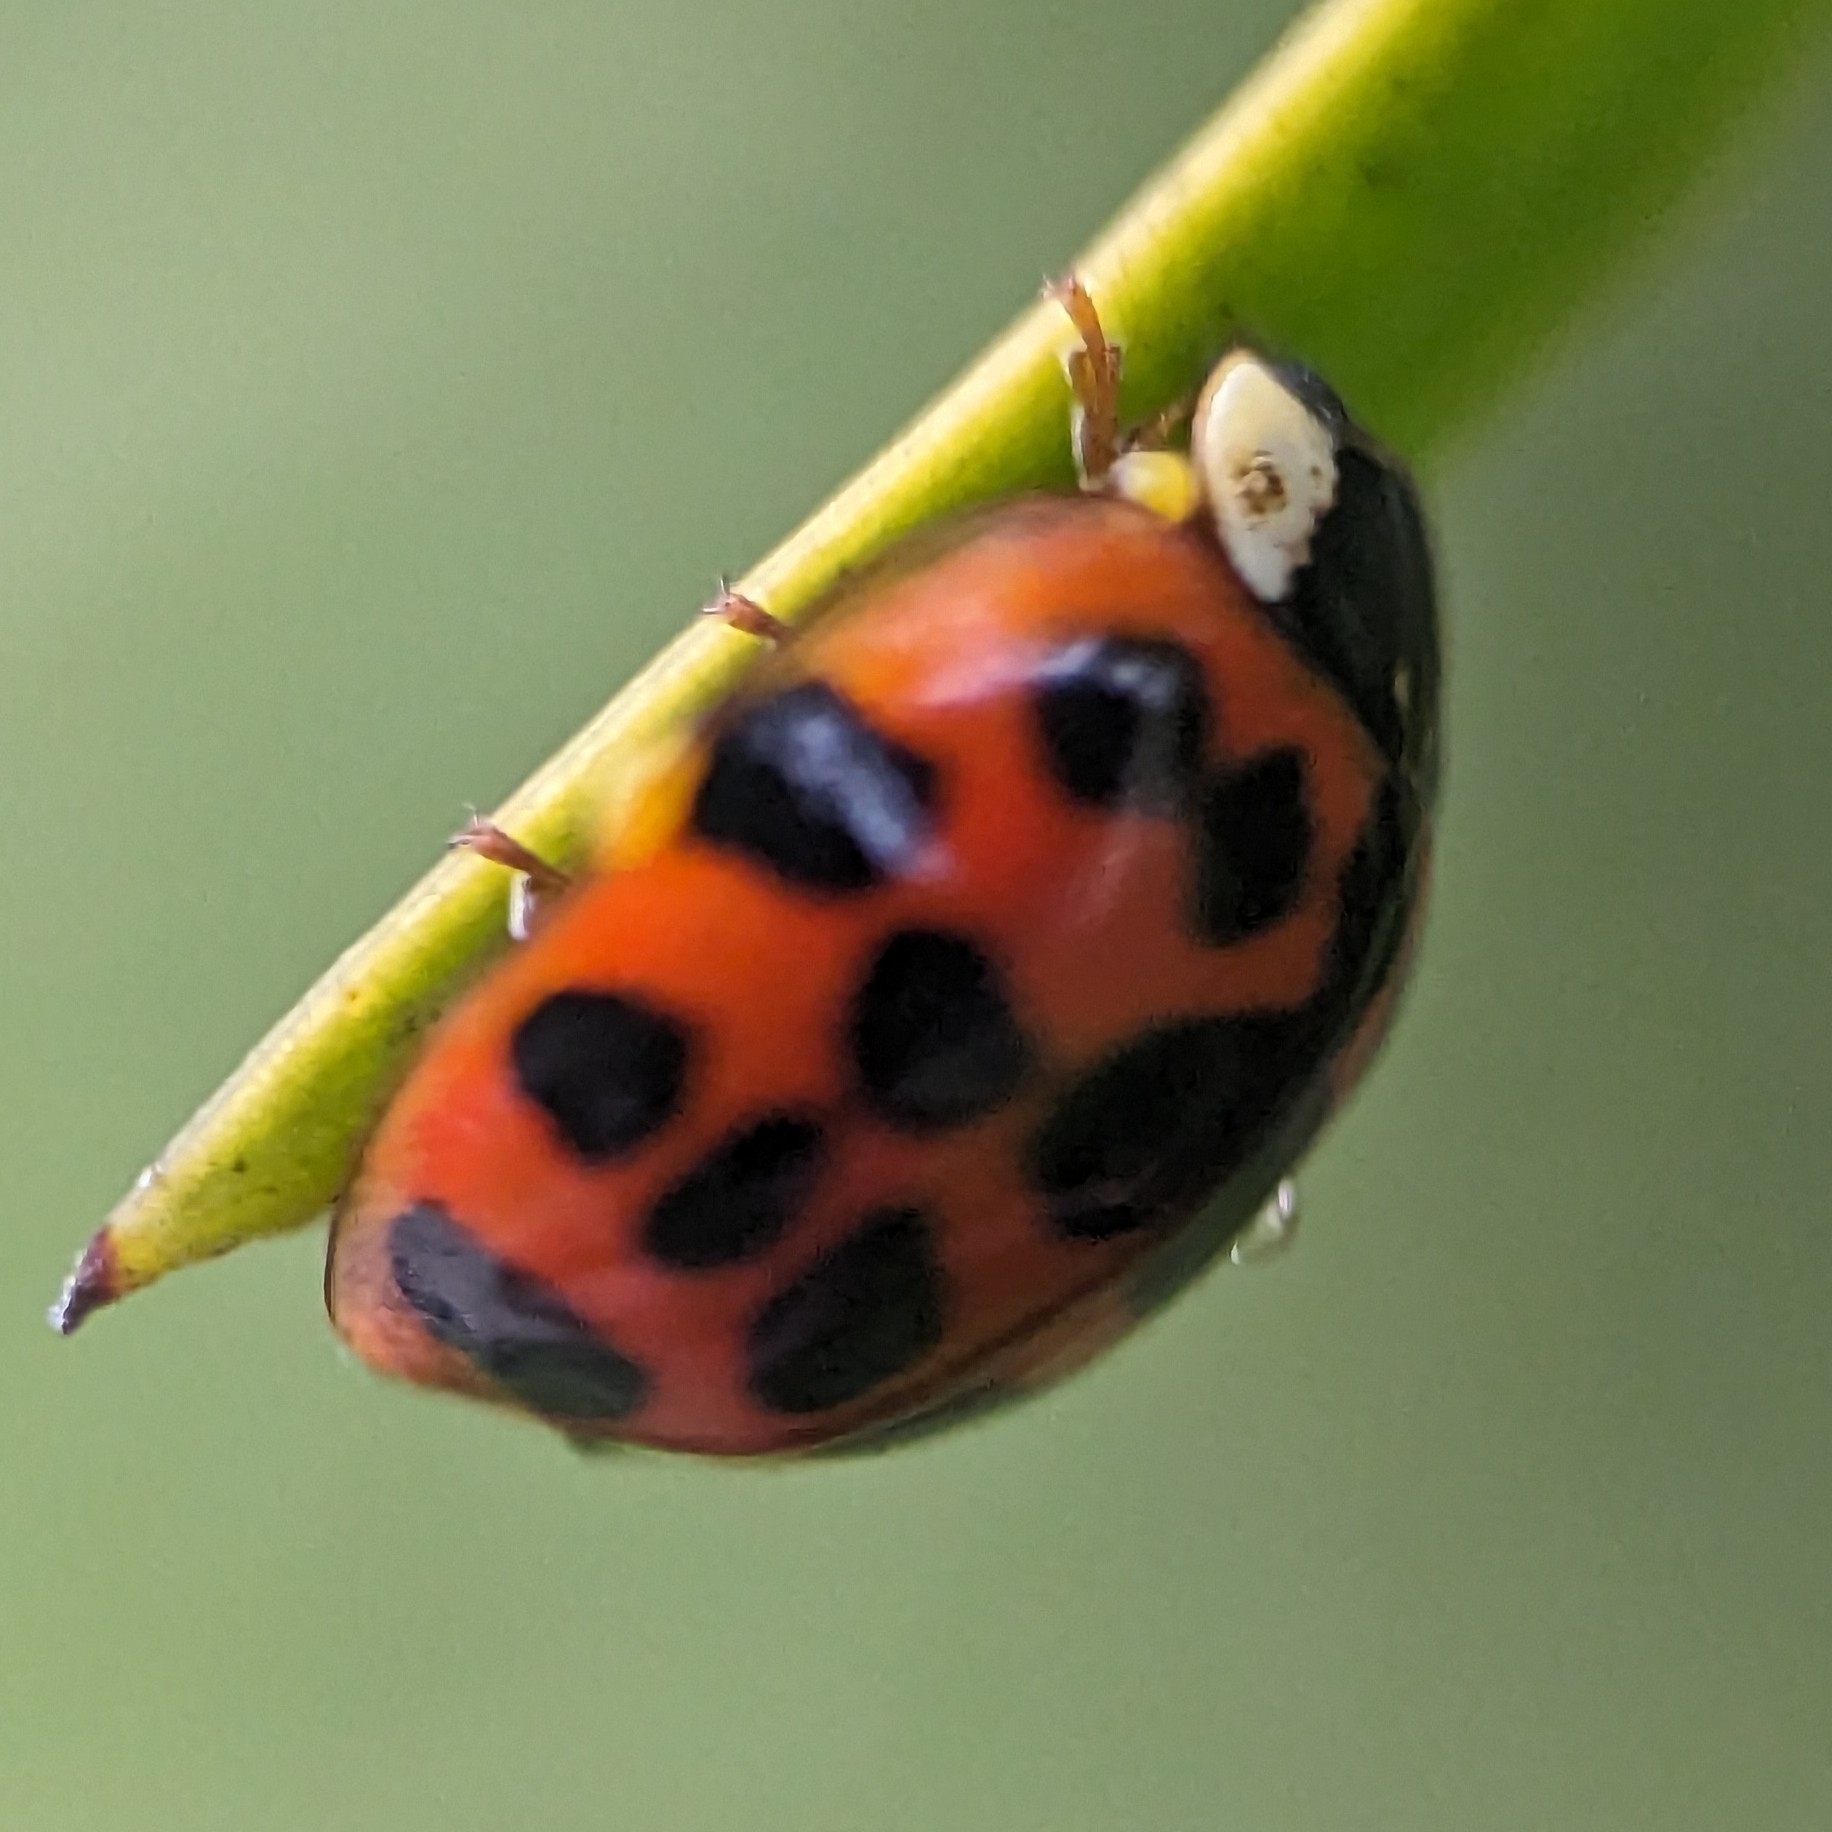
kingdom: Animalia
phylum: Arthropoda
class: Insecta
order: Coleoptera
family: Coccinellidae
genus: Harmonia
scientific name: Harmonia axyridis
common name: Harlequin ladybird
